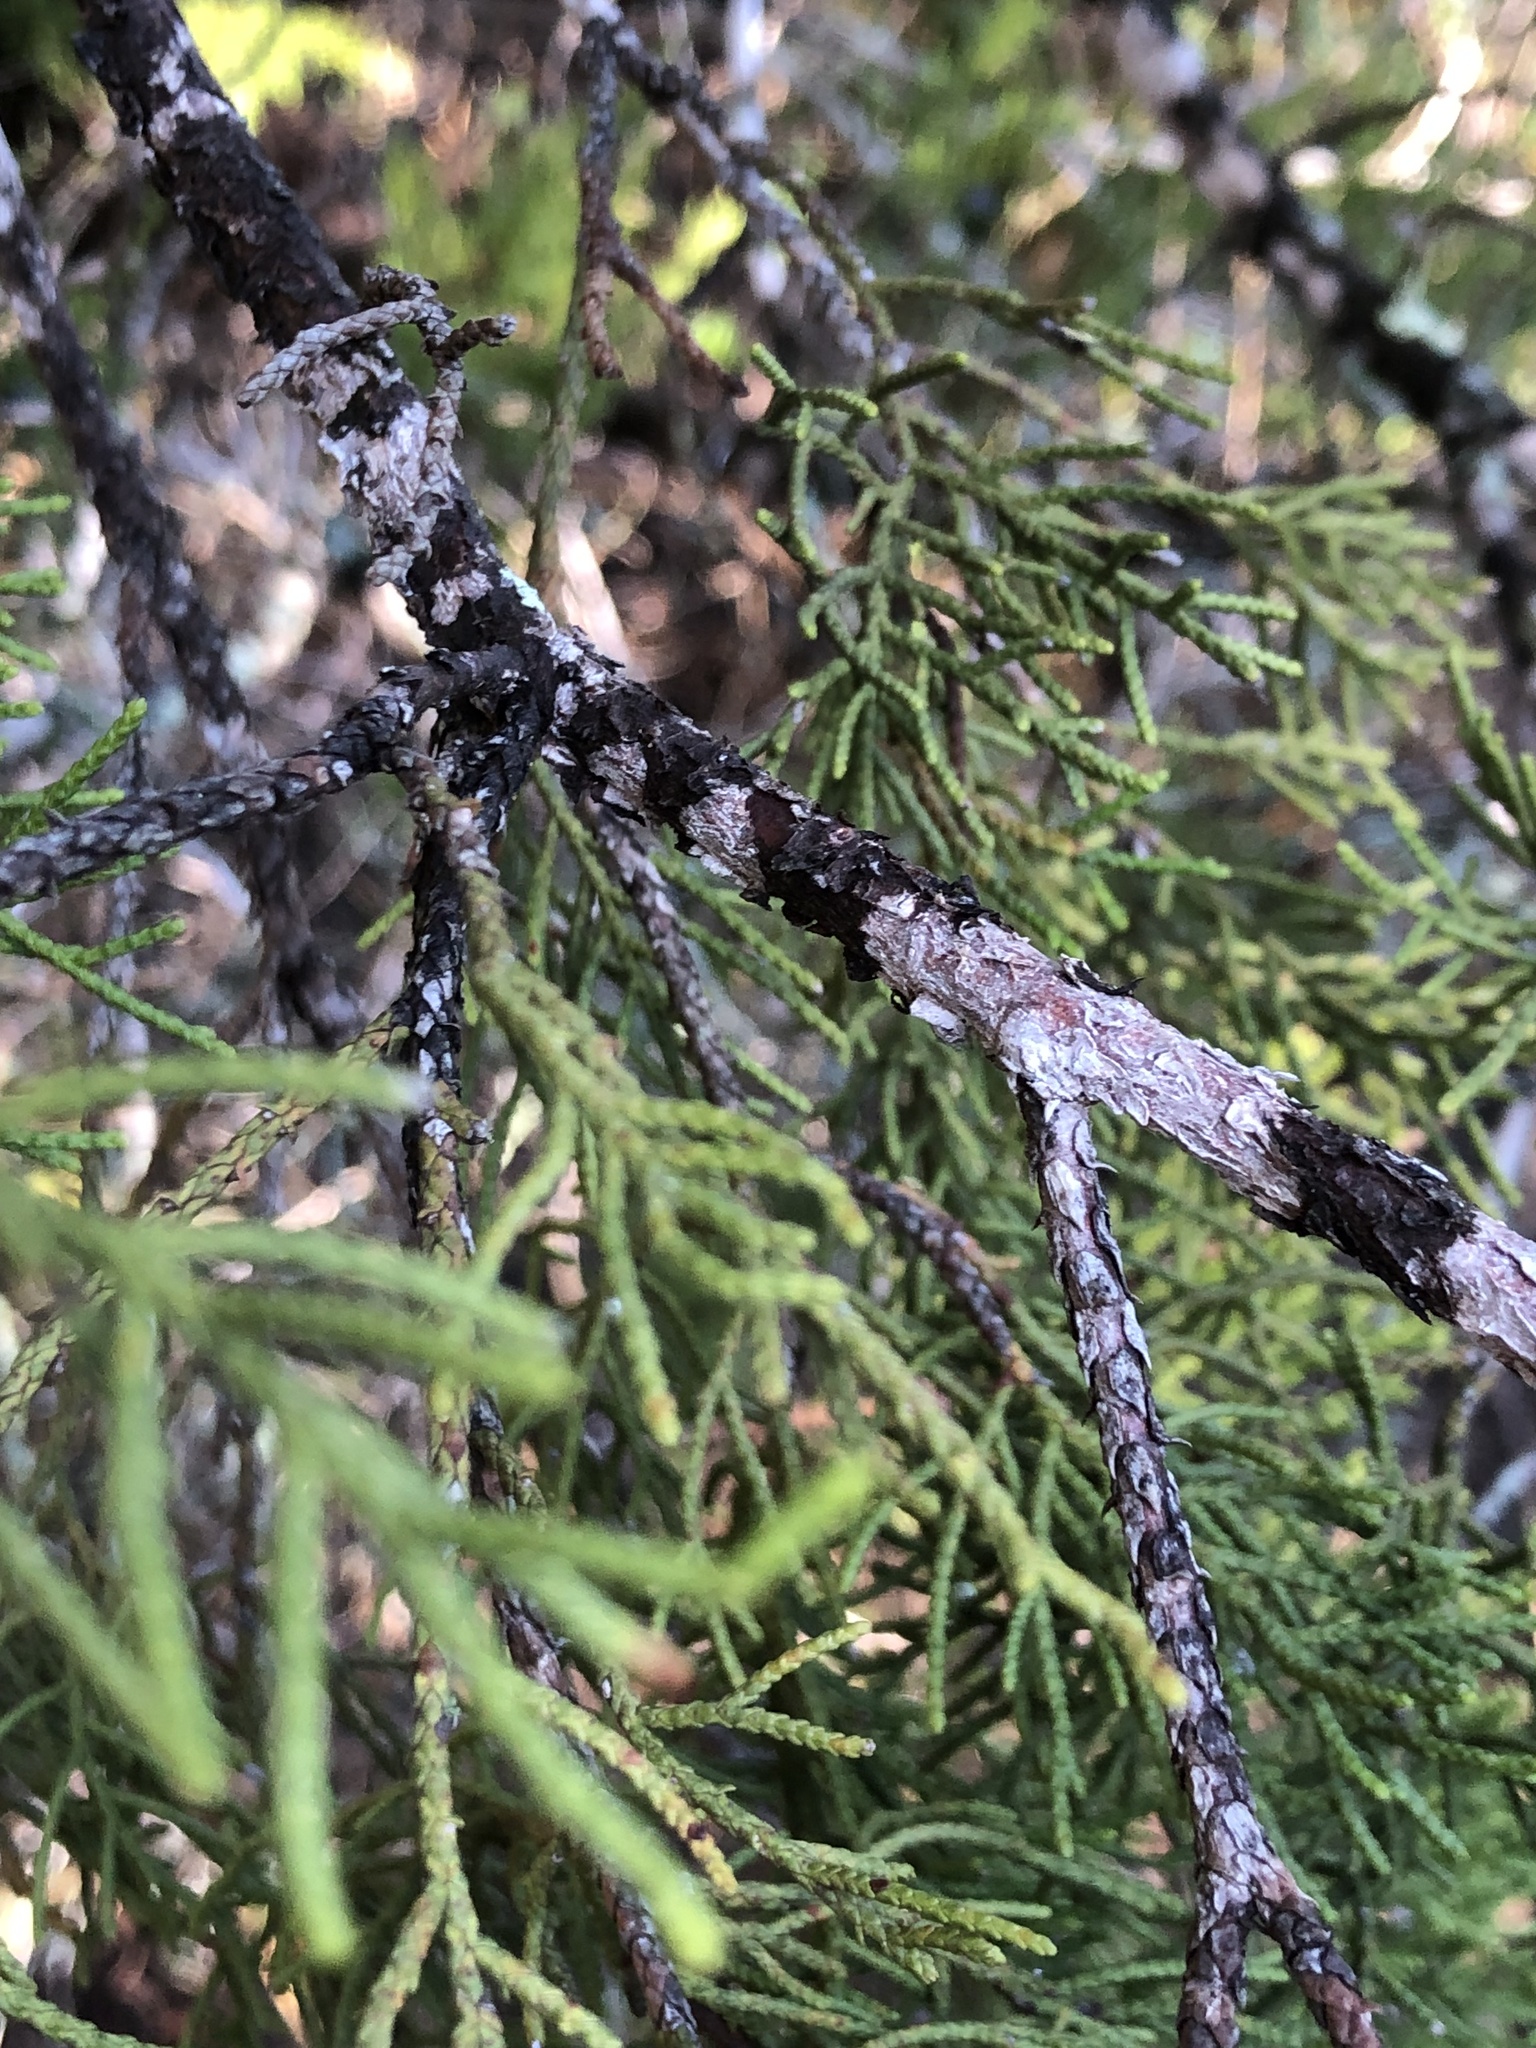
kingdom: Fungi
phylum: Ascomycota
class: Lecanoromycetes
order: Ostropales
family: Stictidaceae
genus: Robergea
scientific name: Robergea
